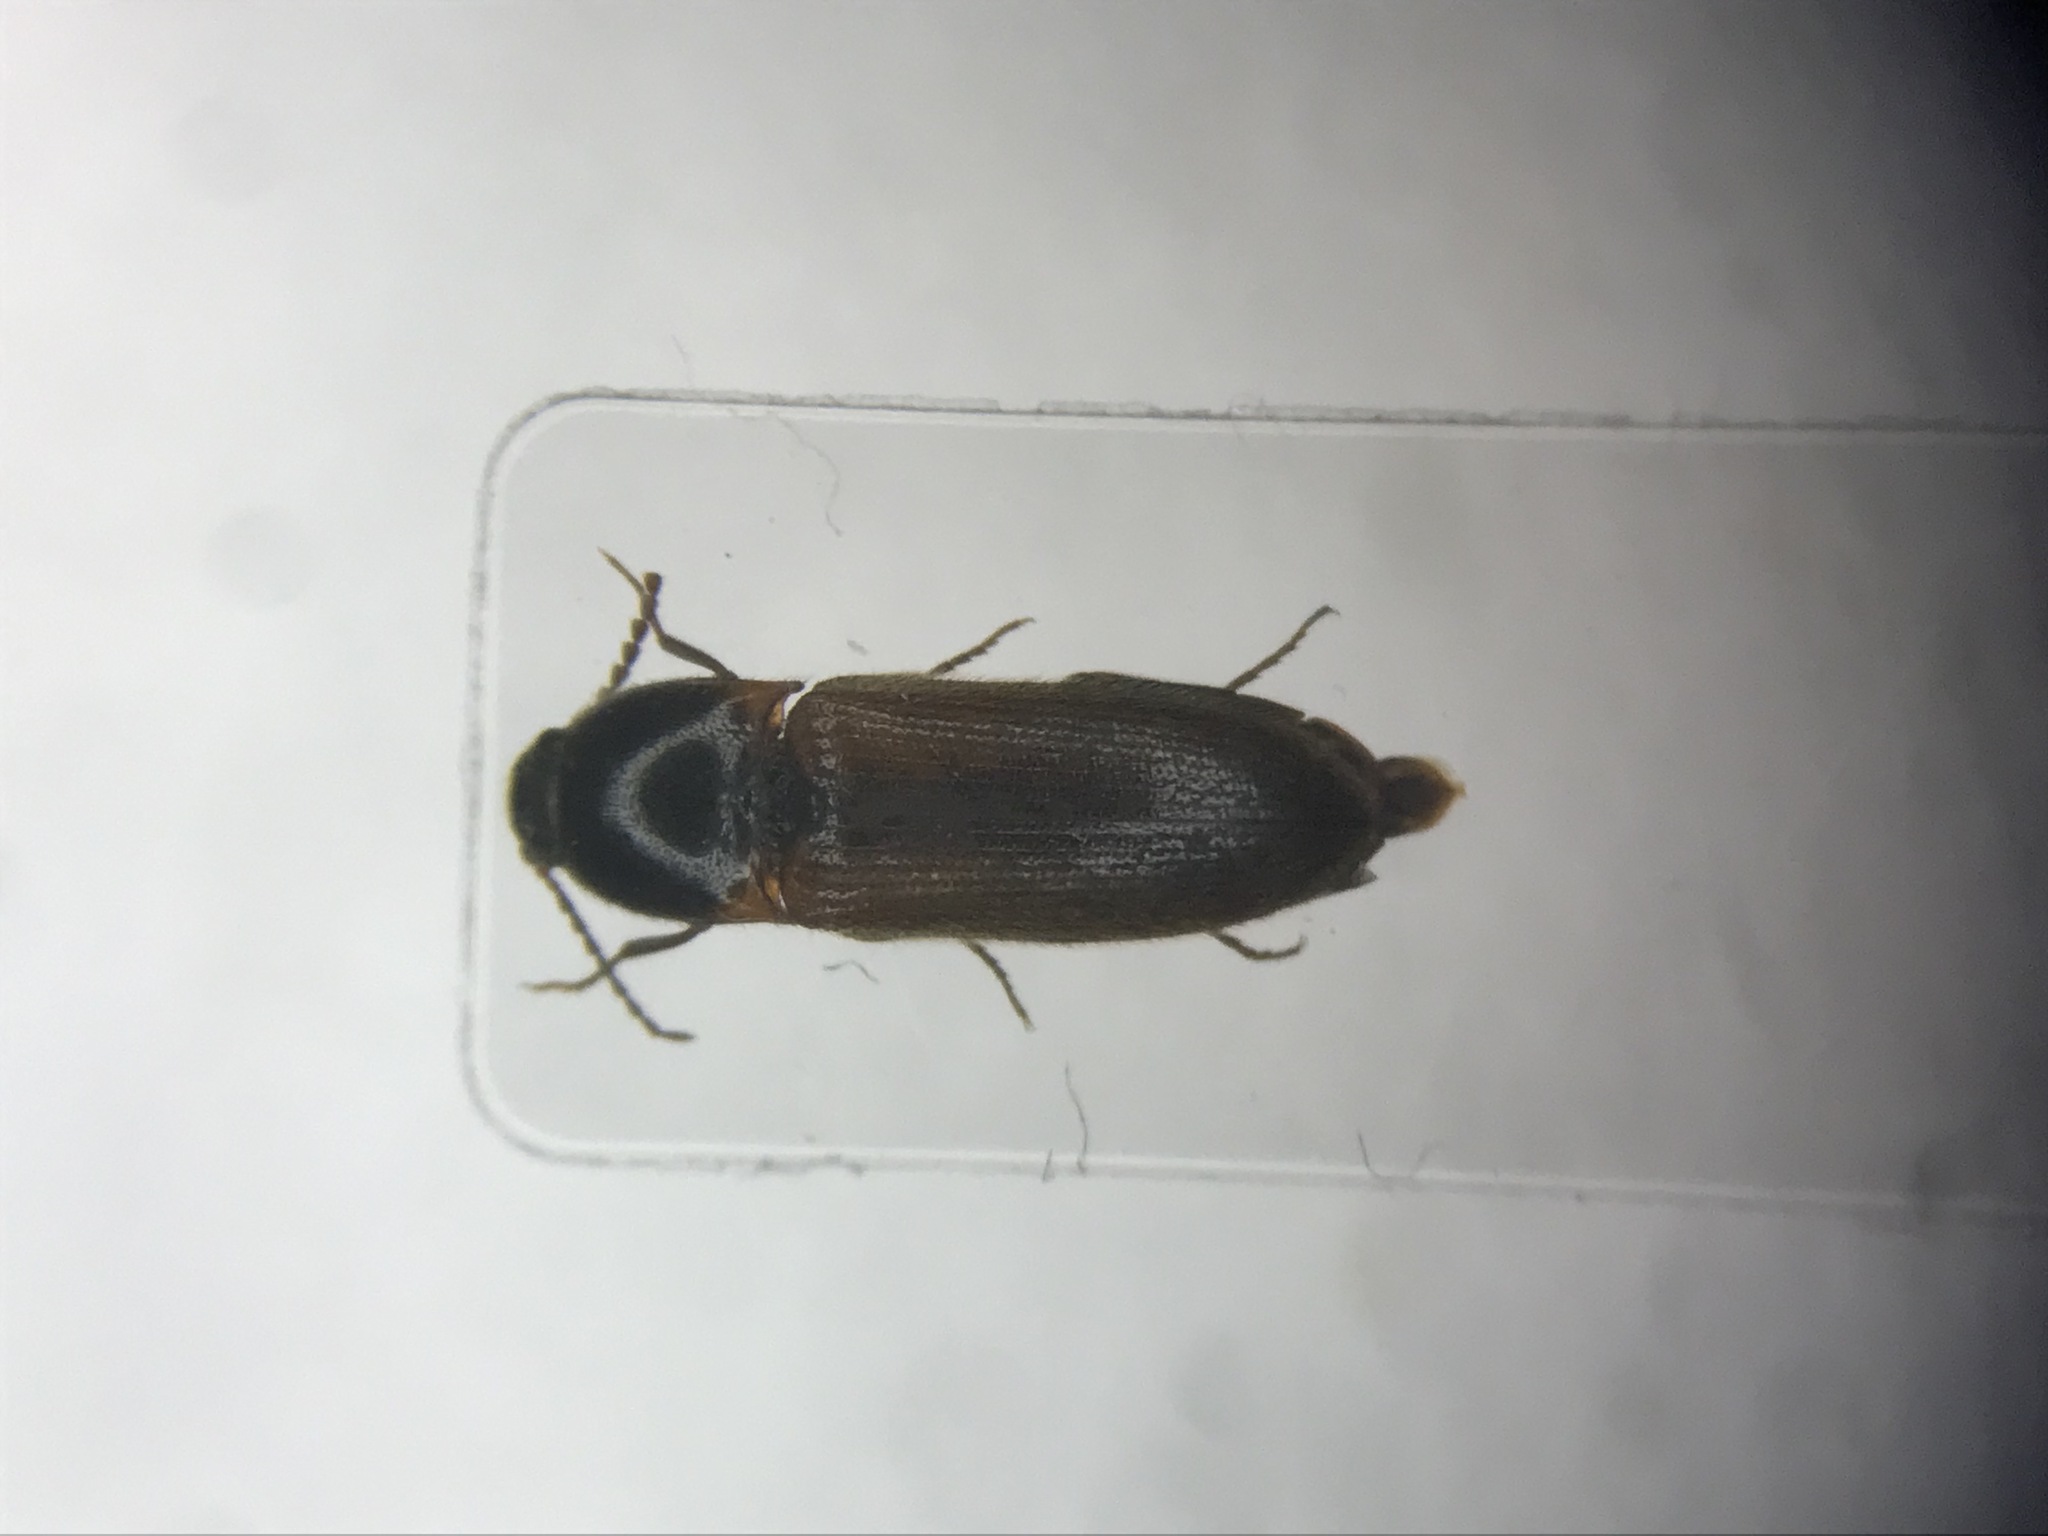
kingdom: Animalia
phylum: Arthropoda
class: Insecta
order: Coleoptera
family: Elateridae
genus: Ampedus
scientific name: Ampedus fusculus
